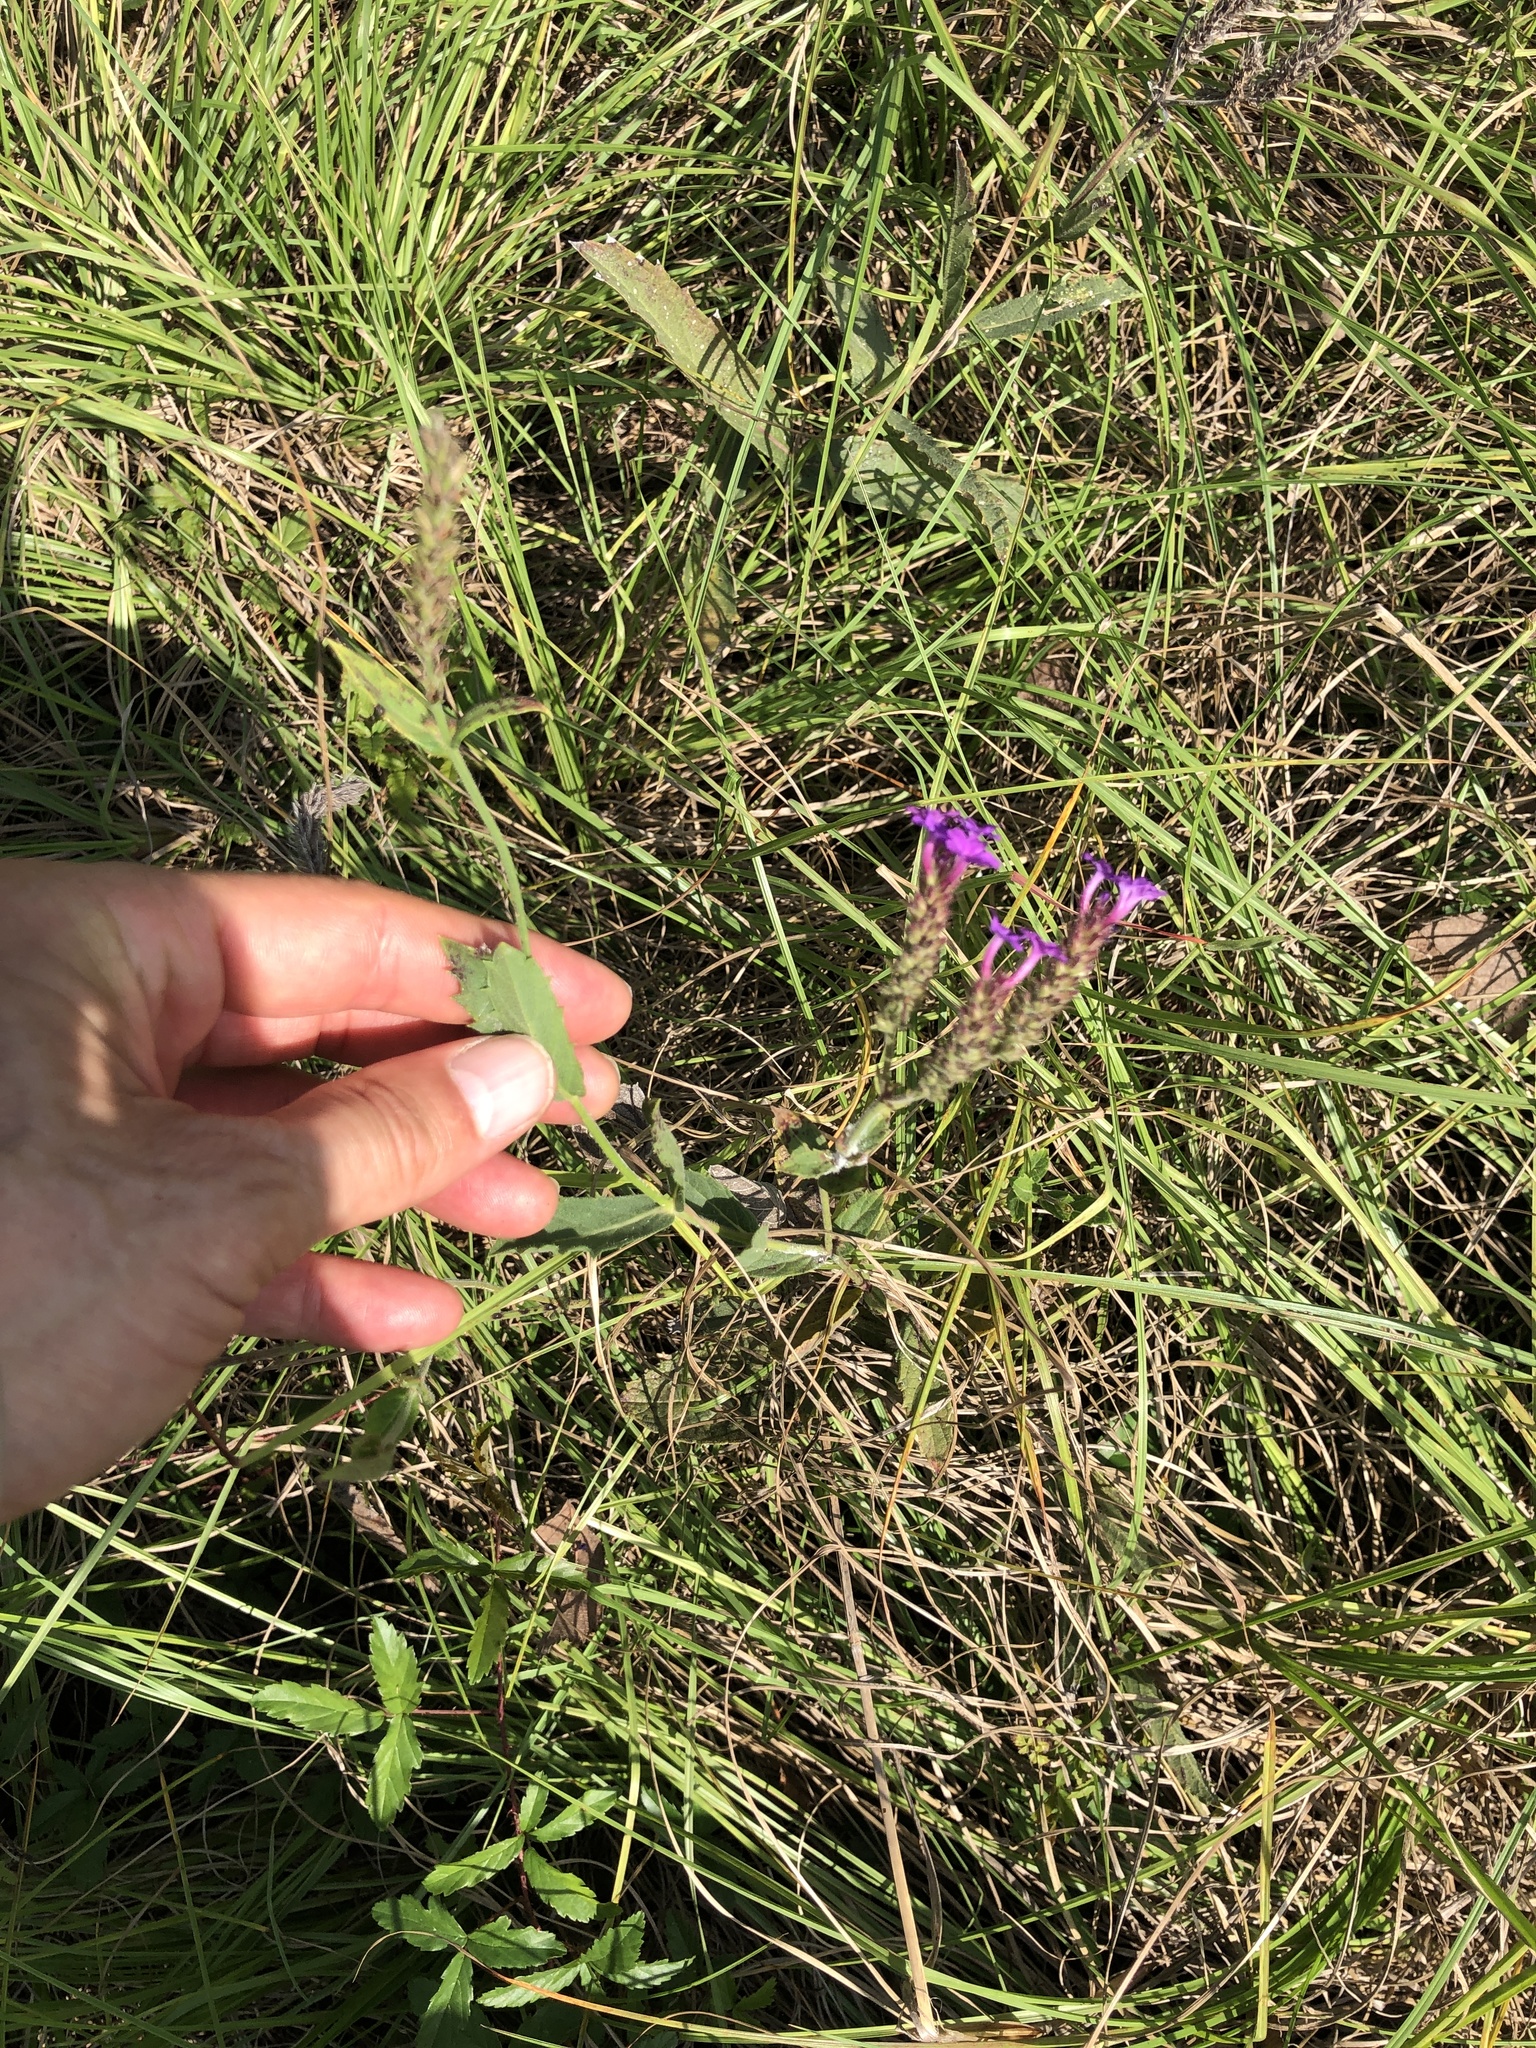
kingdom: Plantae
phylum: Tracheophyta
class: Magnoliopsida
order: Lamiales
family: Verbenaceae
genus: Verbena
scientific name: Verbena rigida
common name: Slender vervain
